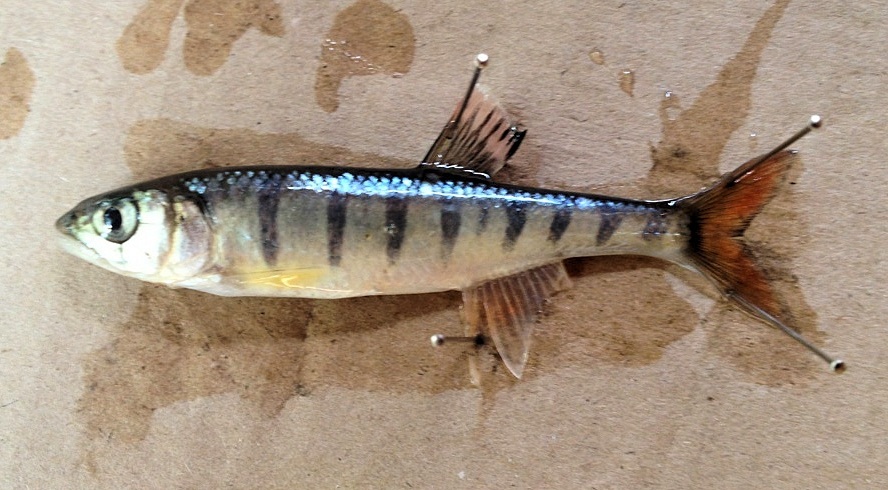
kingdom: Animalia
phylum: Chordata
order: Cypriniformes
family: Cyprinidae
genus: Opsaridium
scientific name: Opsaridium peringueyi
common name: Southern barred minnow
